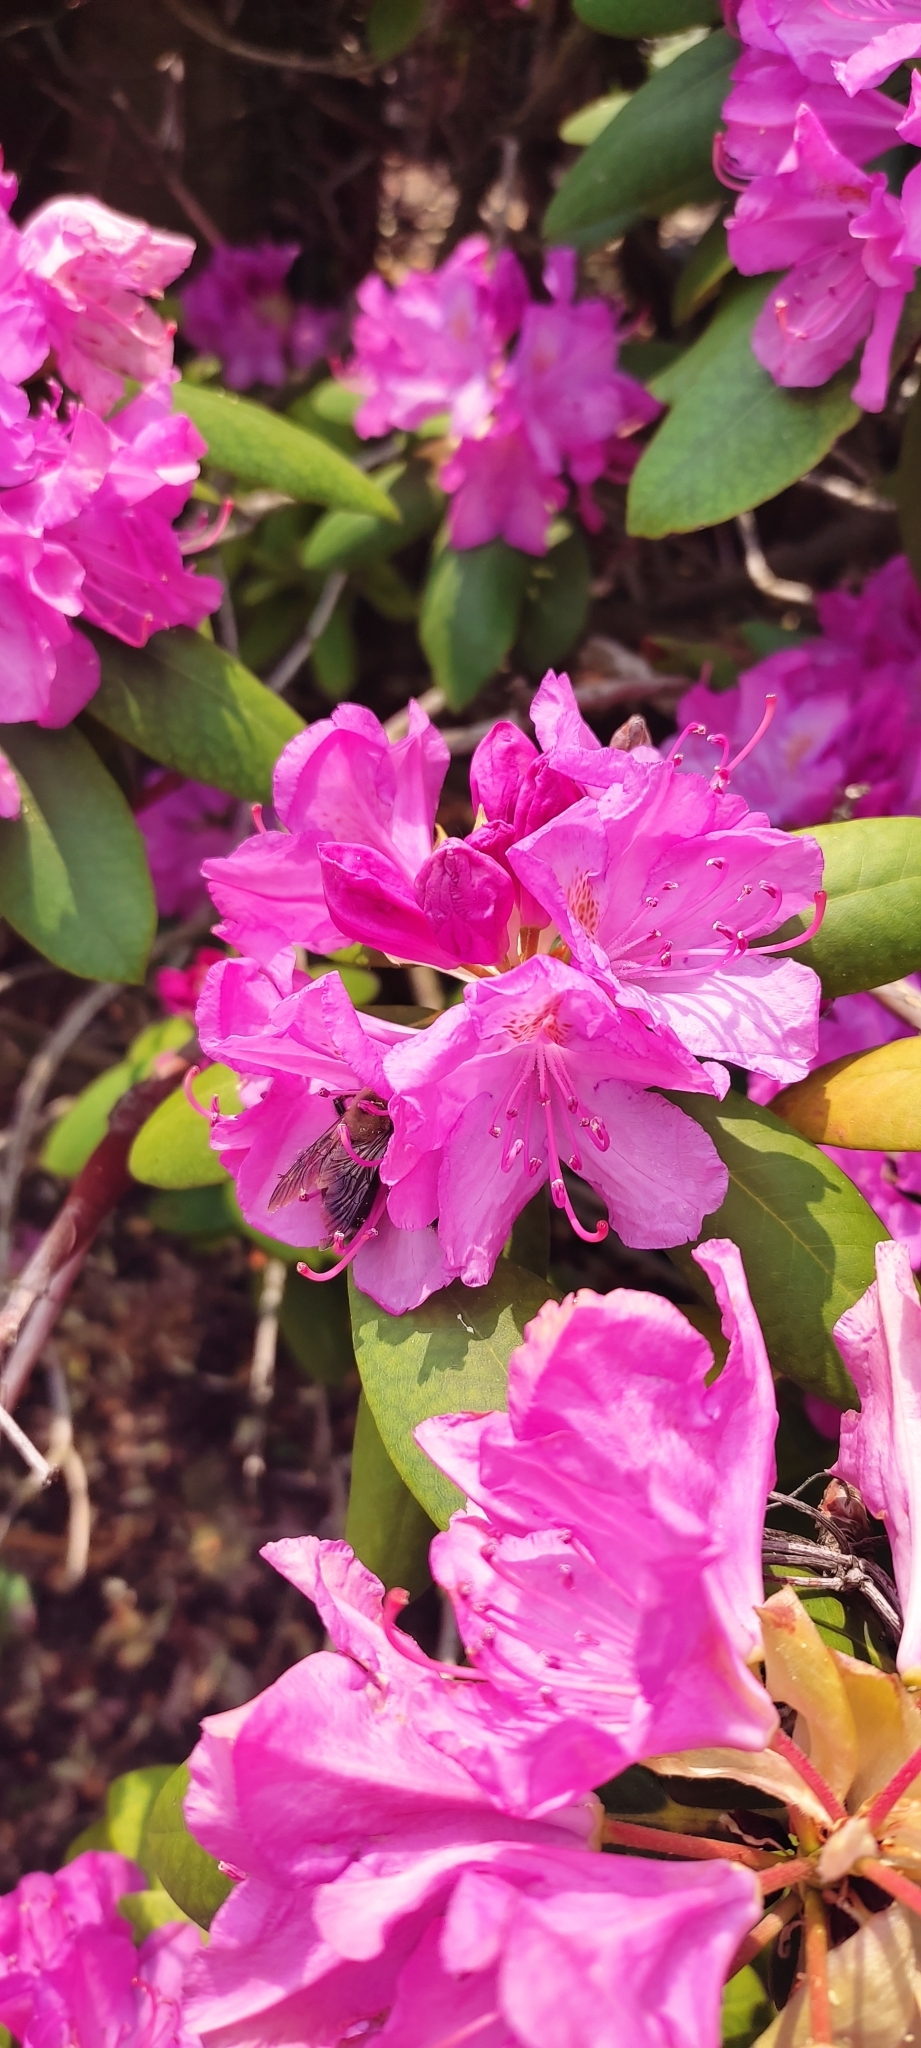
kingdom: Animalia
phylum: Arthropoda
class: Insecta
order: Hymenoptera
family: Apidae
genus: Xylocopa
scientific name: Xylocopa virginica
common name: Carpenter bee
